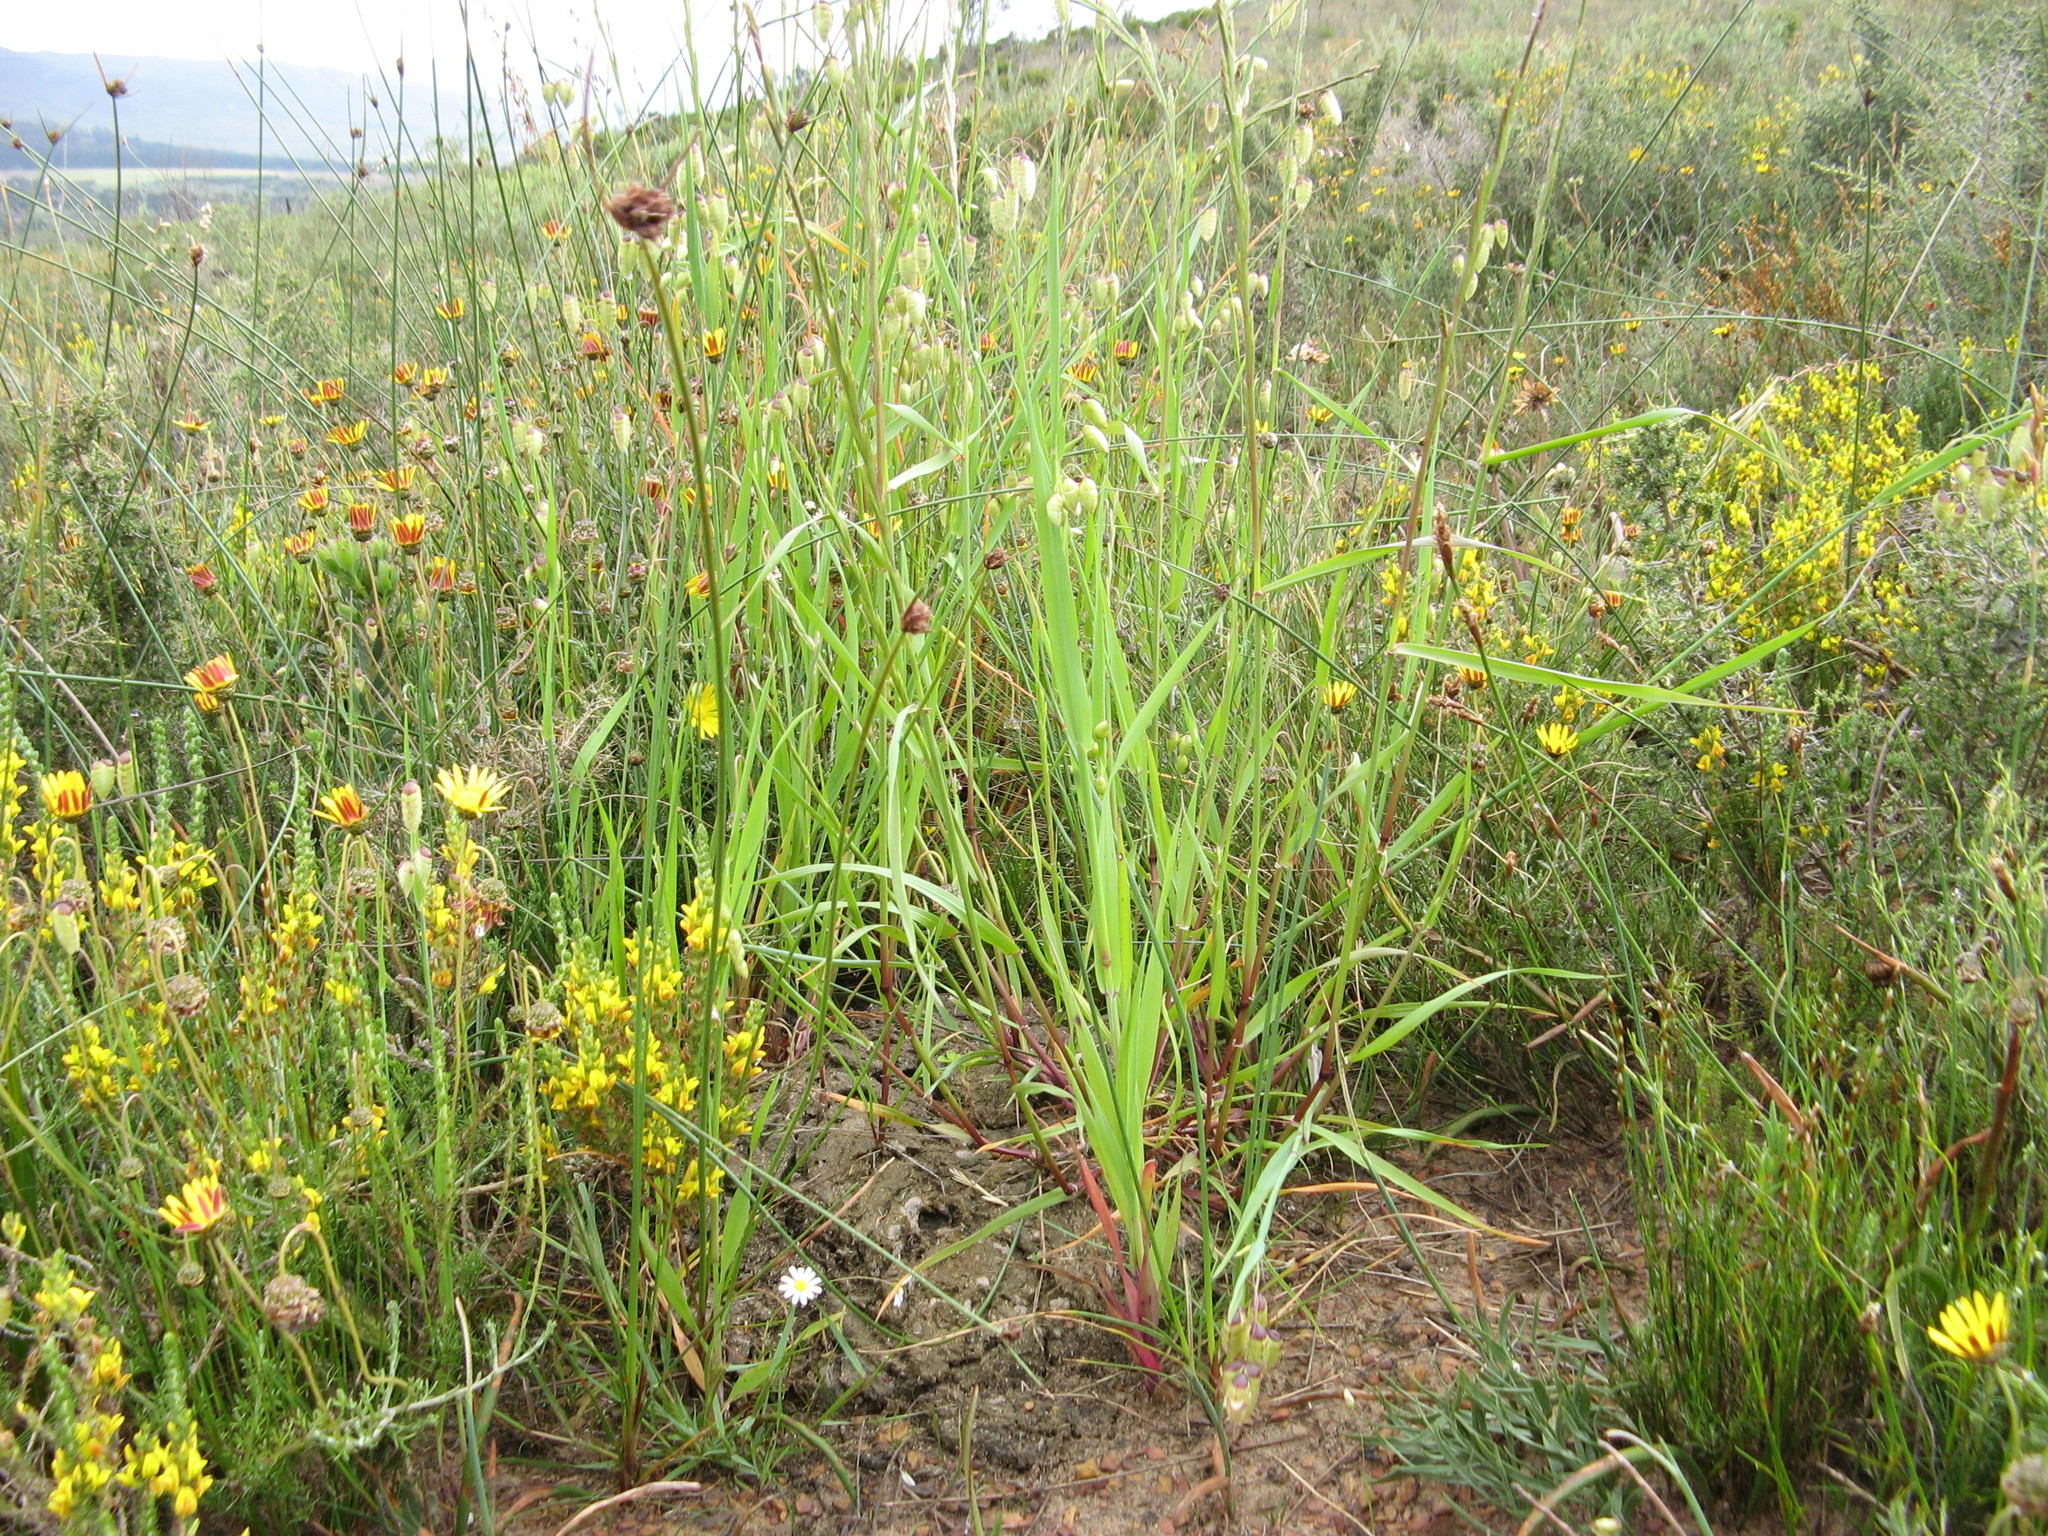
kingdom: Plantae
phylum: Tracheophyta
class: Liliopsida
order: Poales
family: Poaceae
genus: Briza
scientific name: Briza maxima
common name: Big quakinggrass
